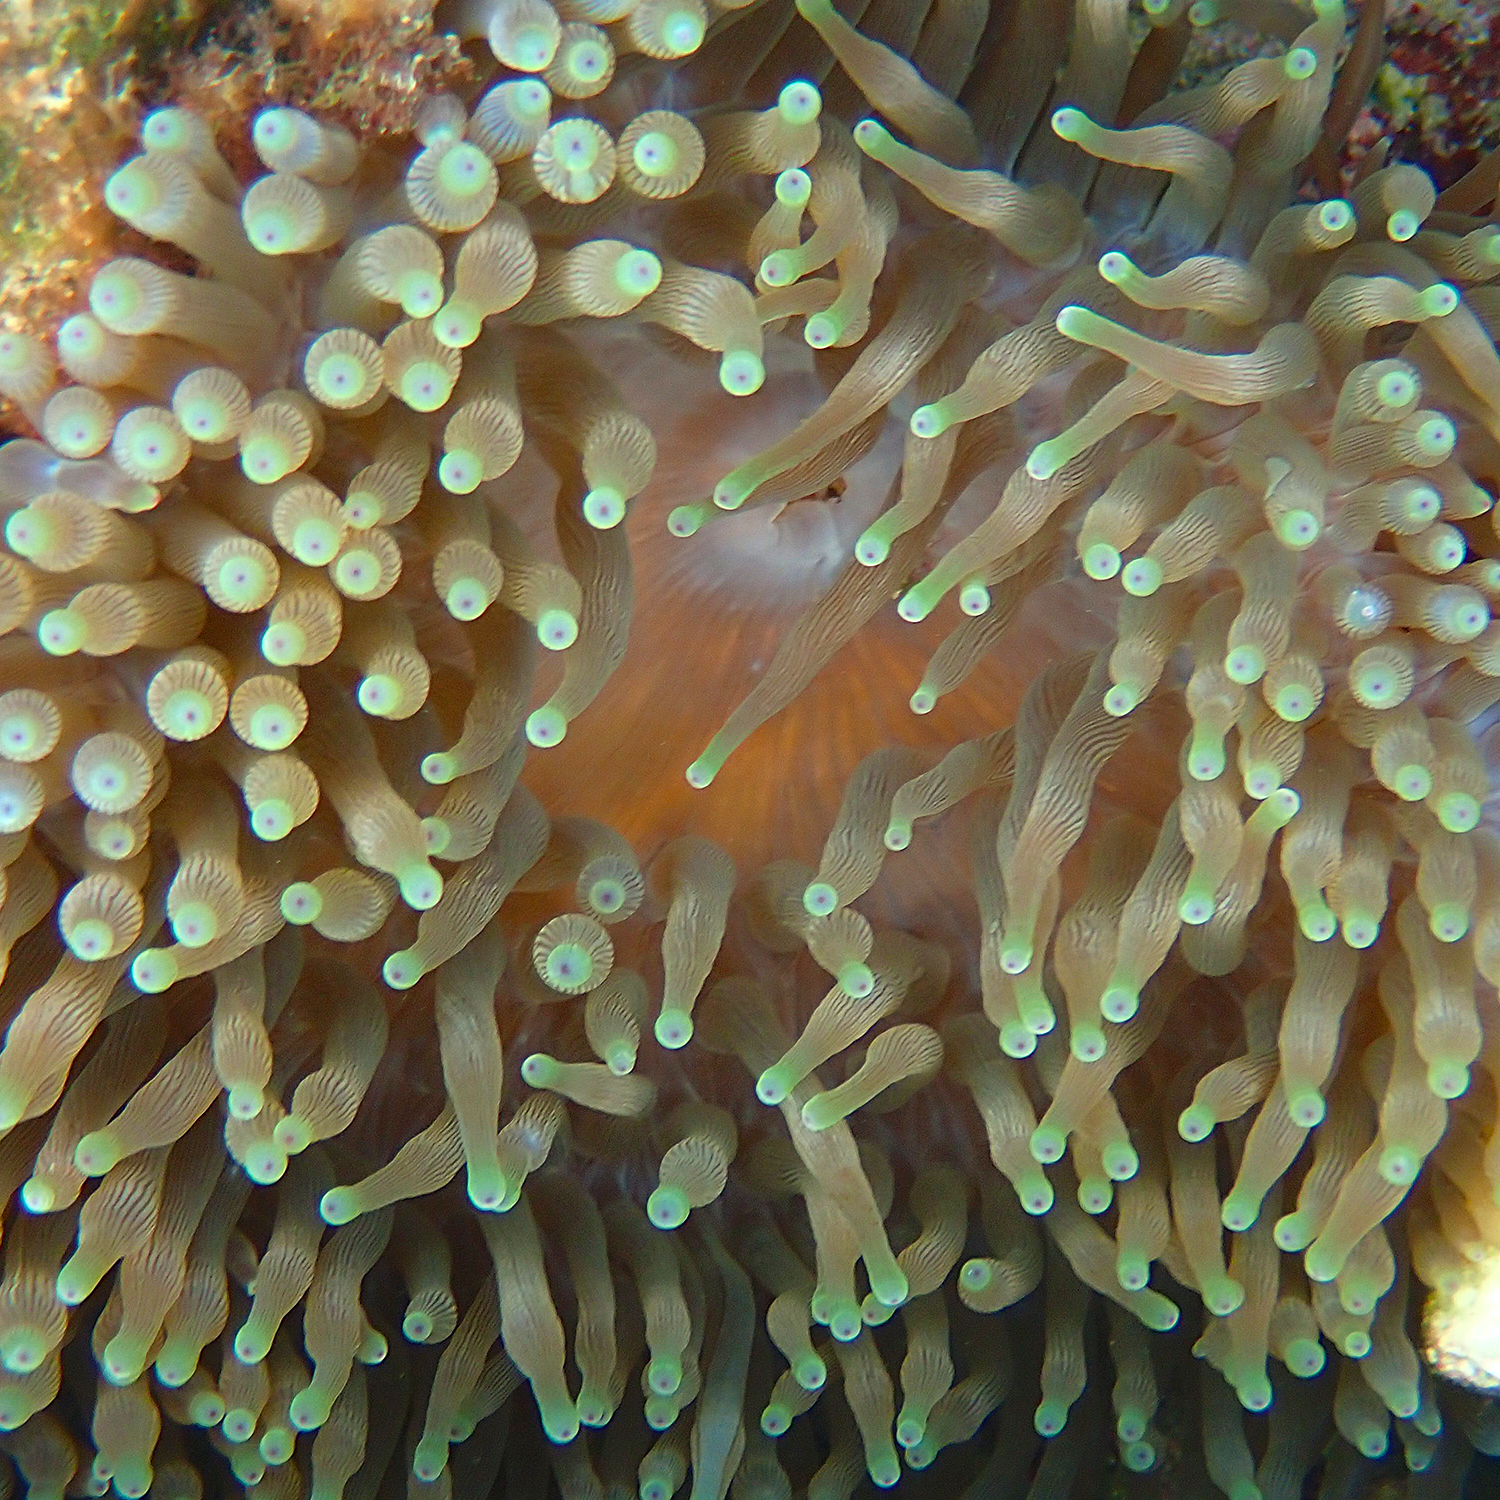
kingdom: Animalia
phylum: Cnidaria
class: Anthozoa
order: Actiniaria
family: Actiniidae
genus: Entacmaea
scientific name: Entacmaea quadricolor
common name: Bulb tentacle sea anemone
